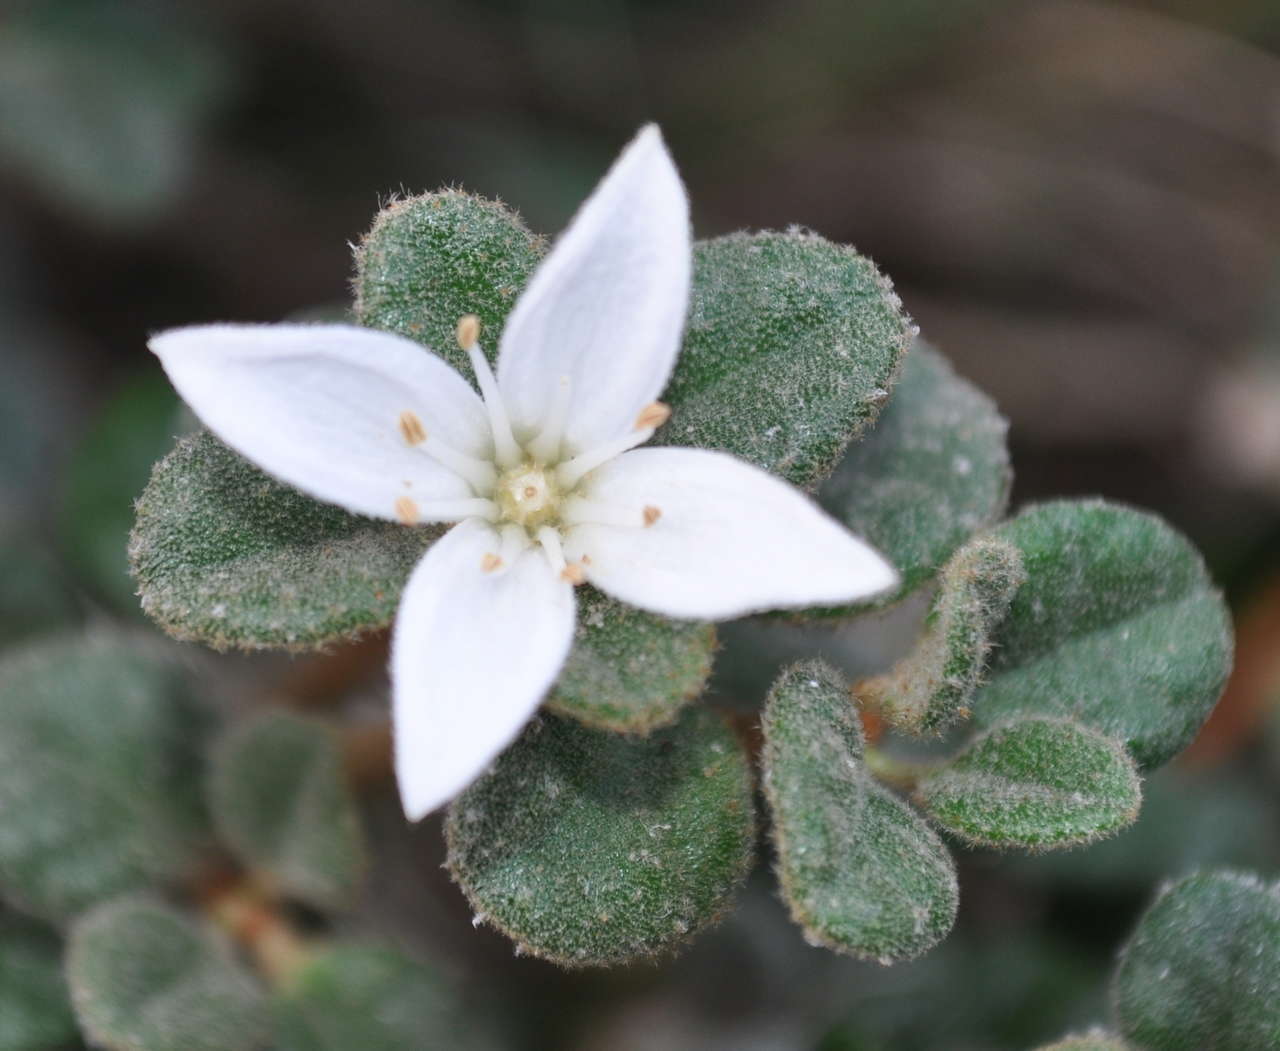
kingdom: Plantae
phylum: Tracheophyta
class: Magnoliopsida
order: Sapindales
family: Rutaceae
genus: Correa
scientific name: Correa alba
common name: White correa
